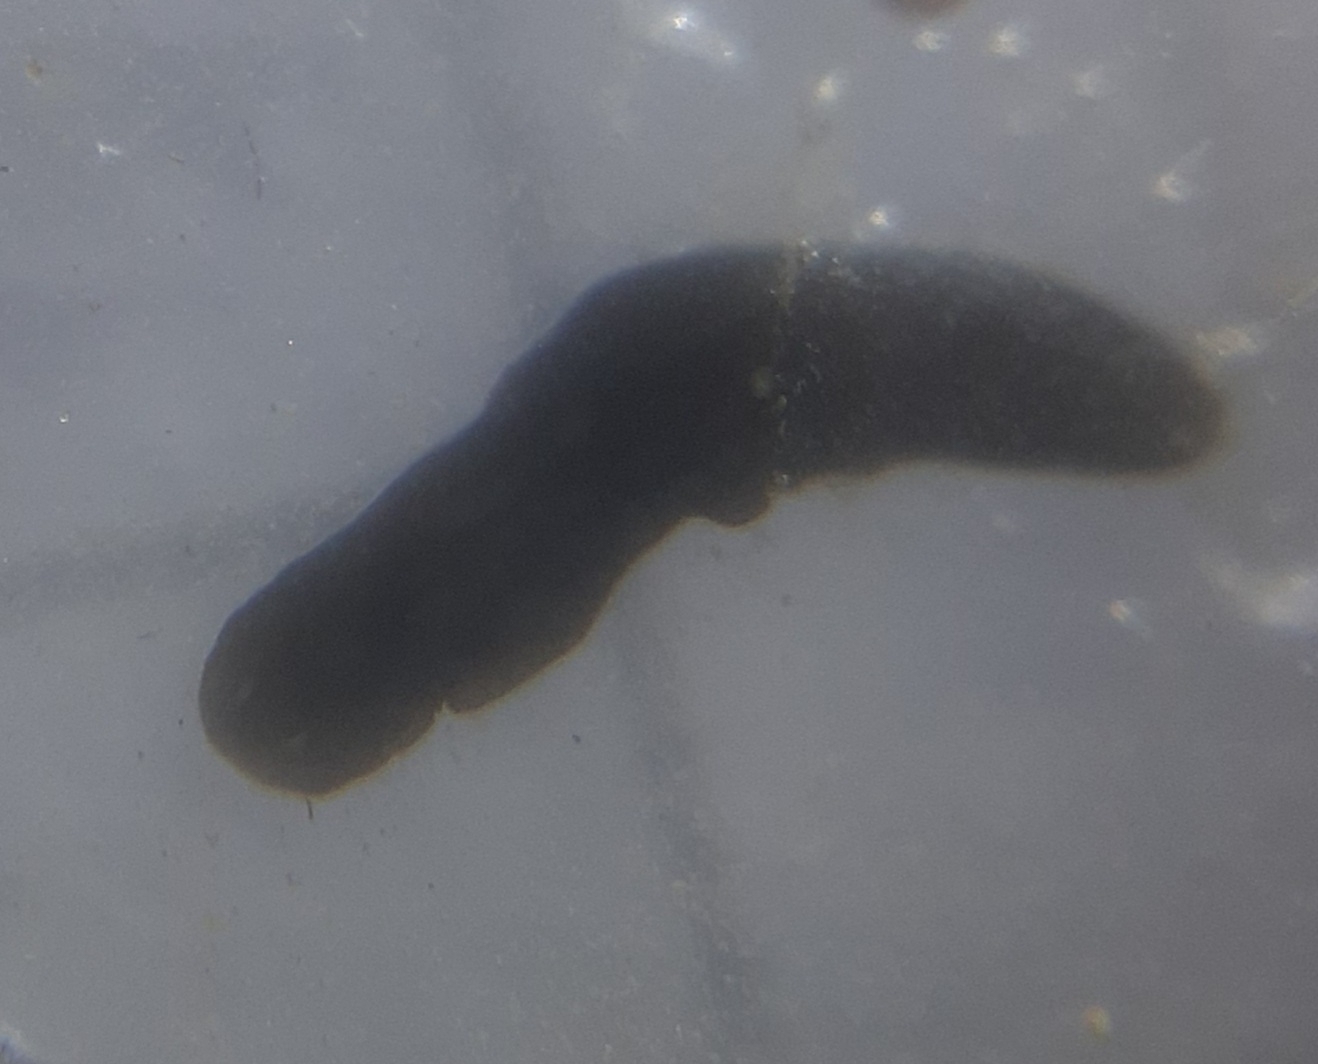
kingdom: Animalia
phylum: Platyhelminthes
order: Tricladida
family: Dugesiidae
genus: Schmidtea
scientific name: Schmidtea
